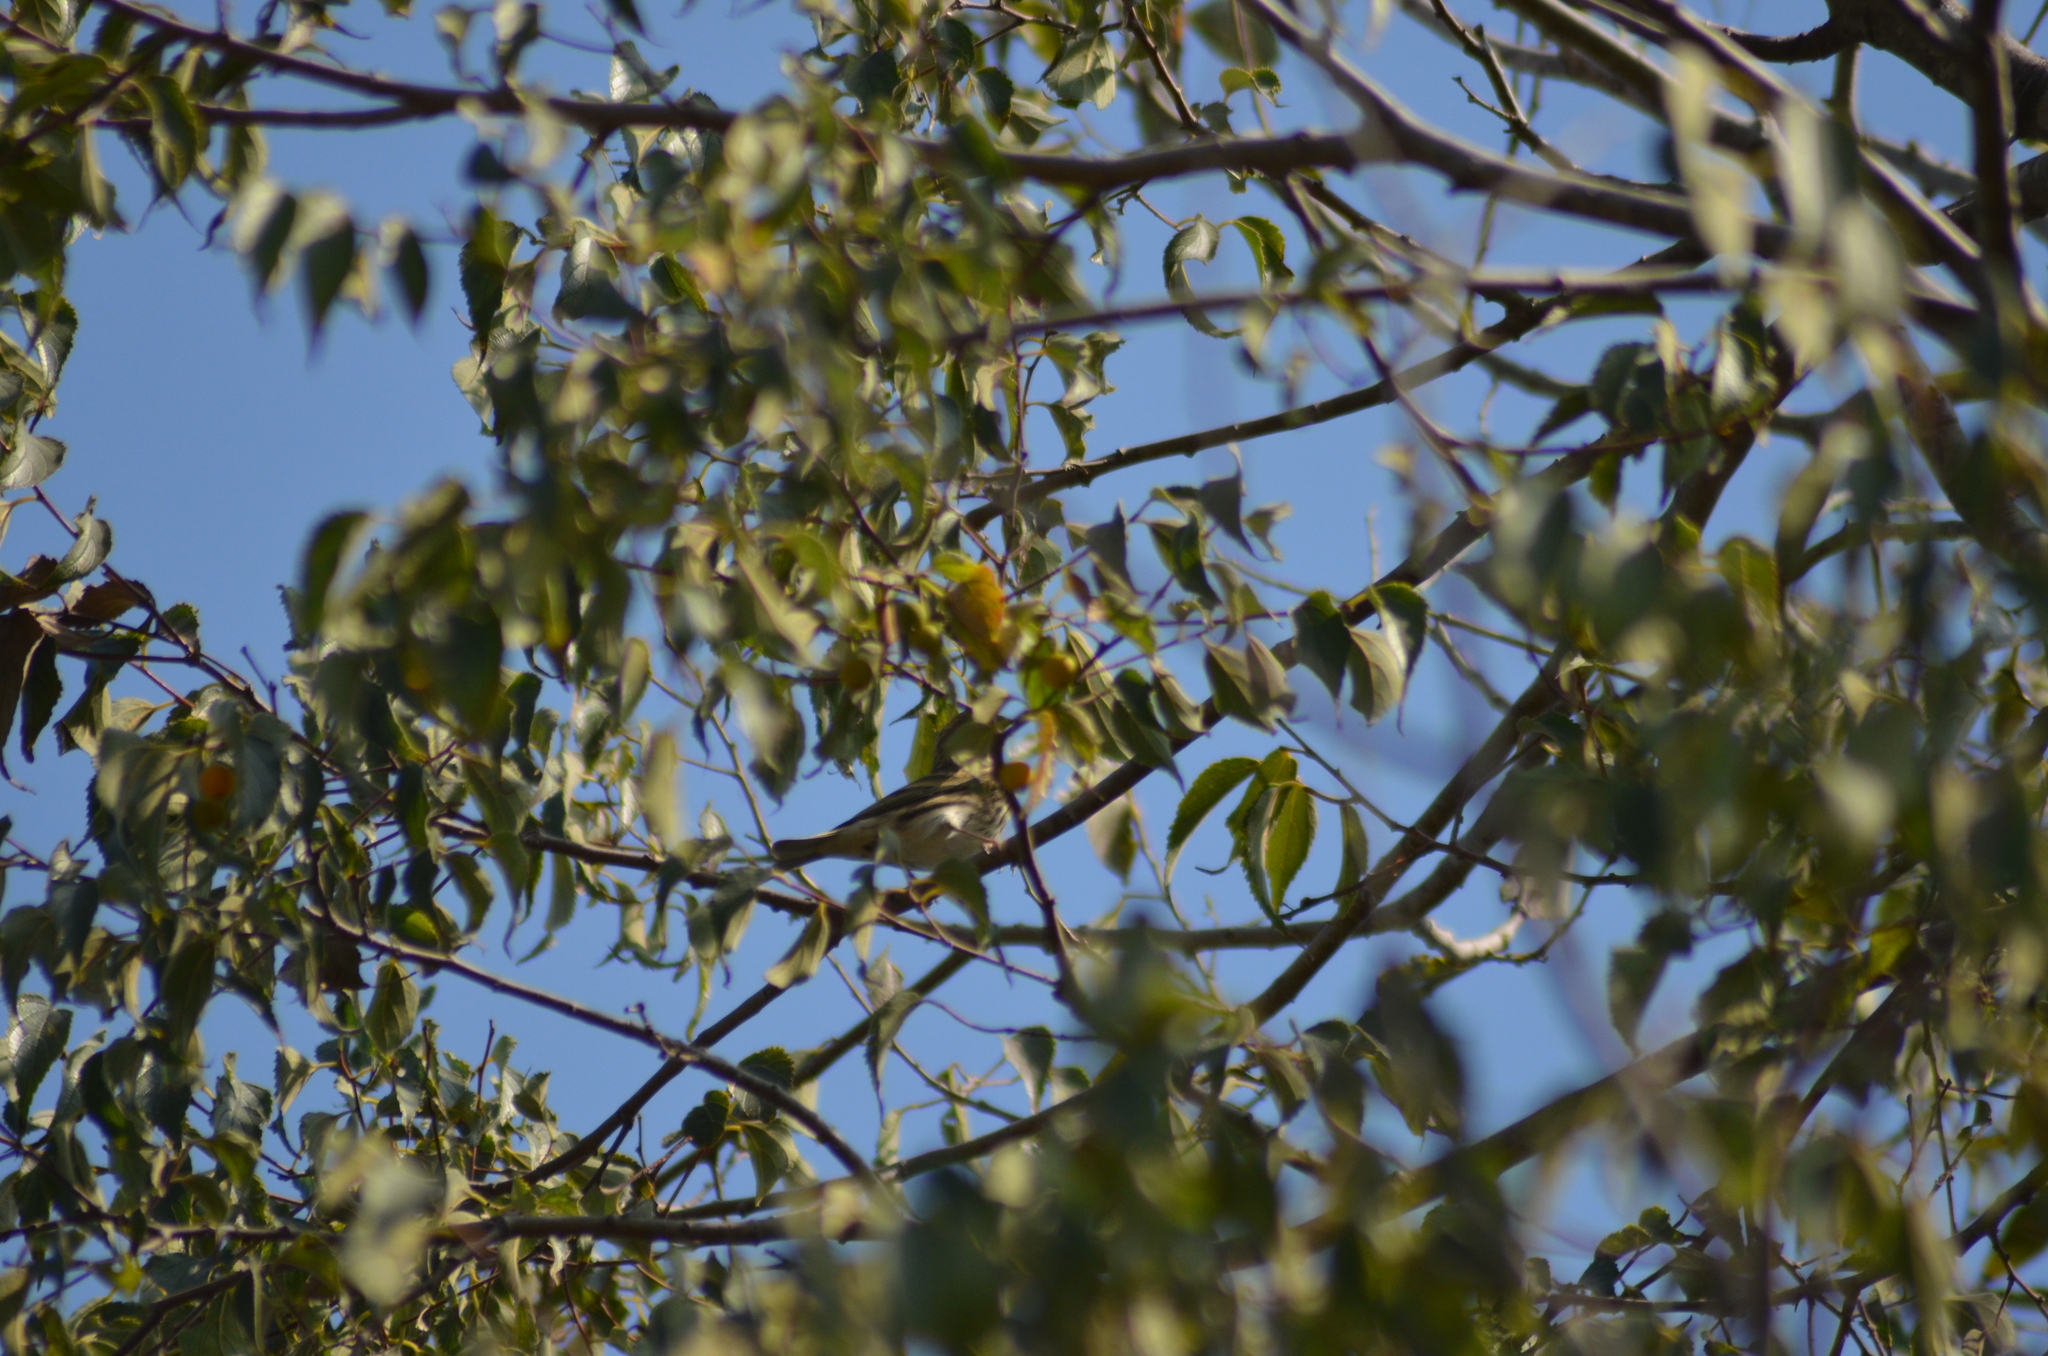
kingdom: Animalia
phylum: Chordata
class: Aves
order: Passeriformes
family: Fringillidae
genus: Serinus
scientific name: Serinus serinus
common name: European serin
